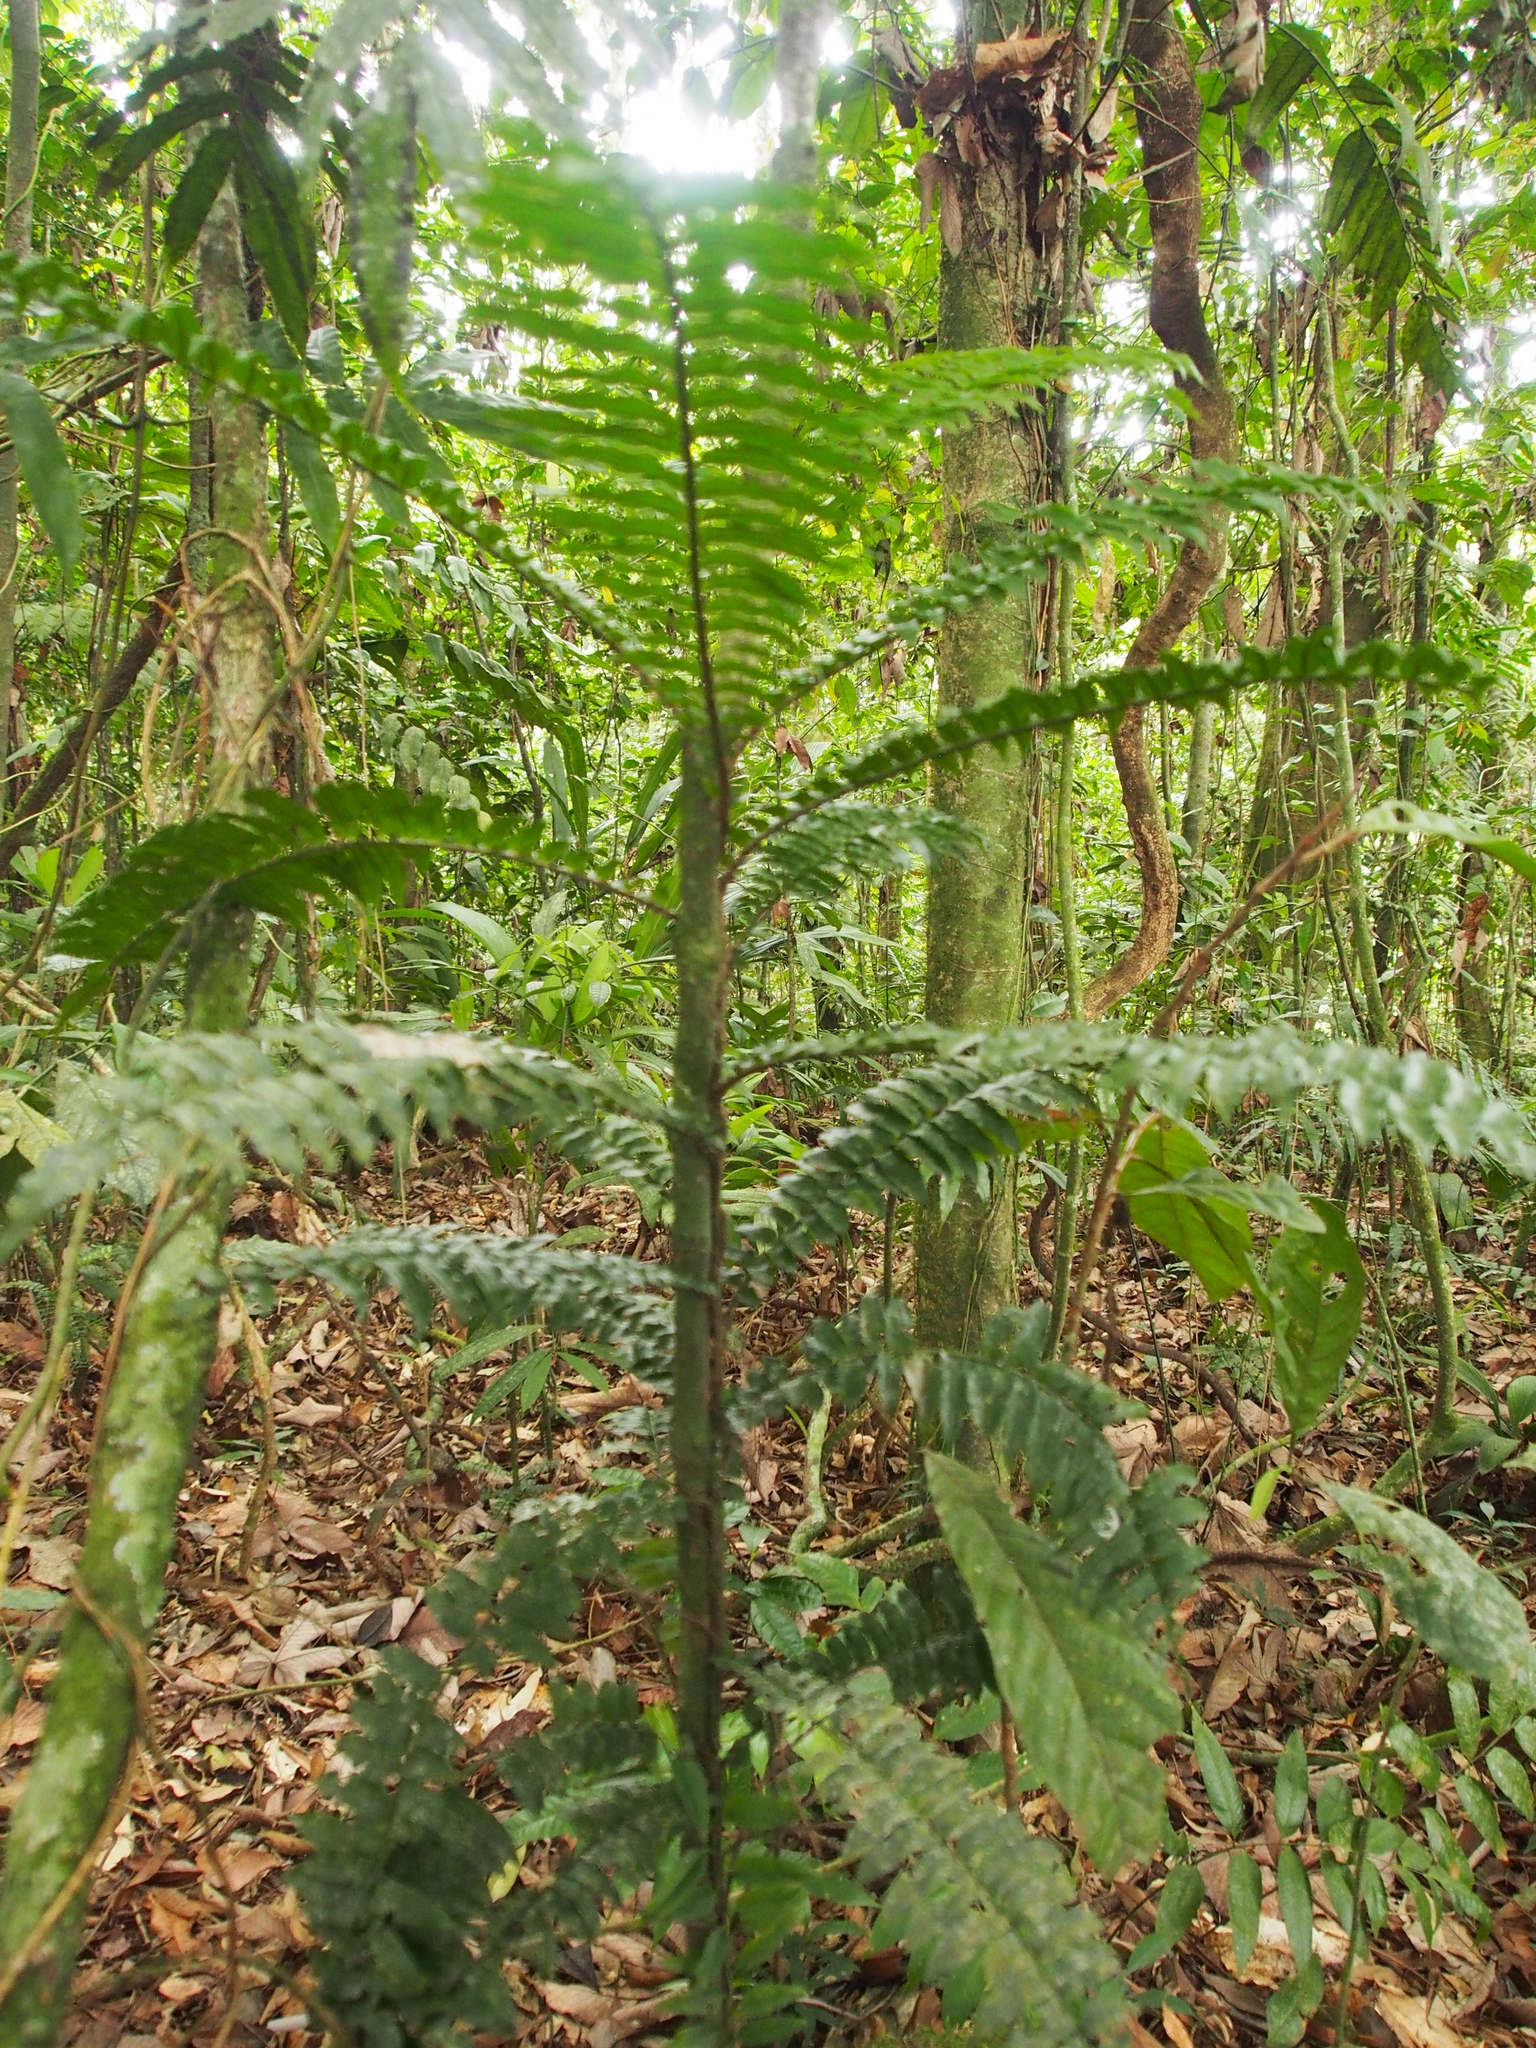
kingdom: Plantae
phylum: Tracheophyta
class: Polypodiopsida
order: Polypodiales
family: Lomariopsidaceae
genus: Lomariopsis
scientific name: Lomariopsis vestita
